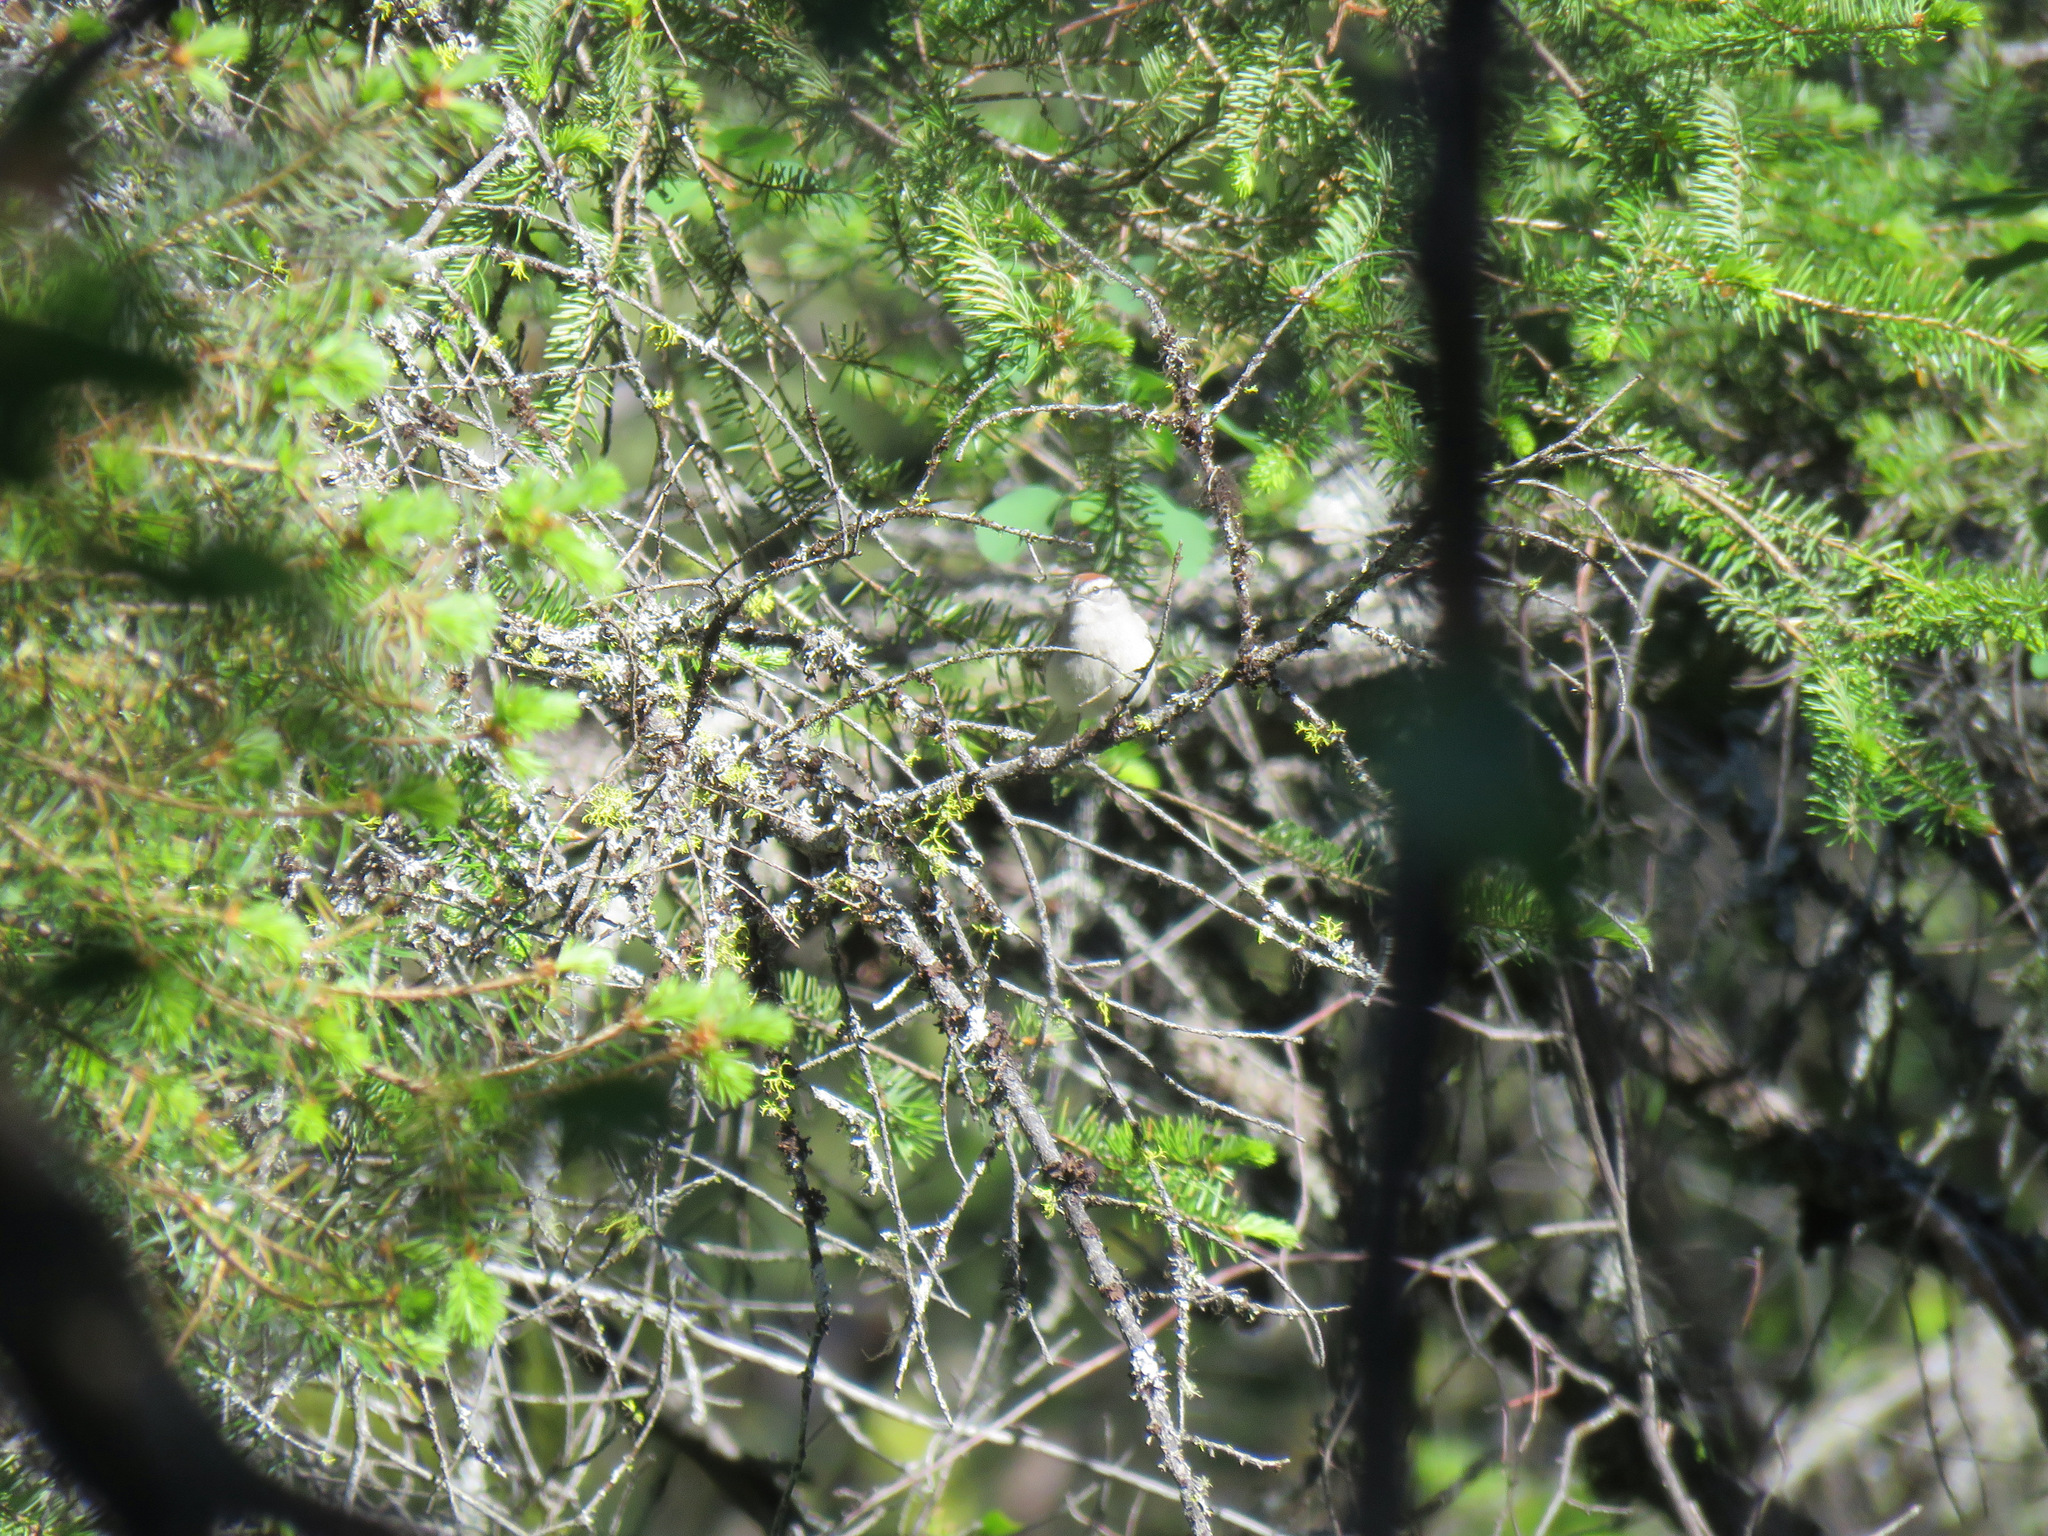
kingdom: Animalia
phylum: Chordata
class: Aves
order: Passeriformes
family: Passerellidae
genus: Spizella
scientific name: Spizella passerina
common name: Chipping sparrow
